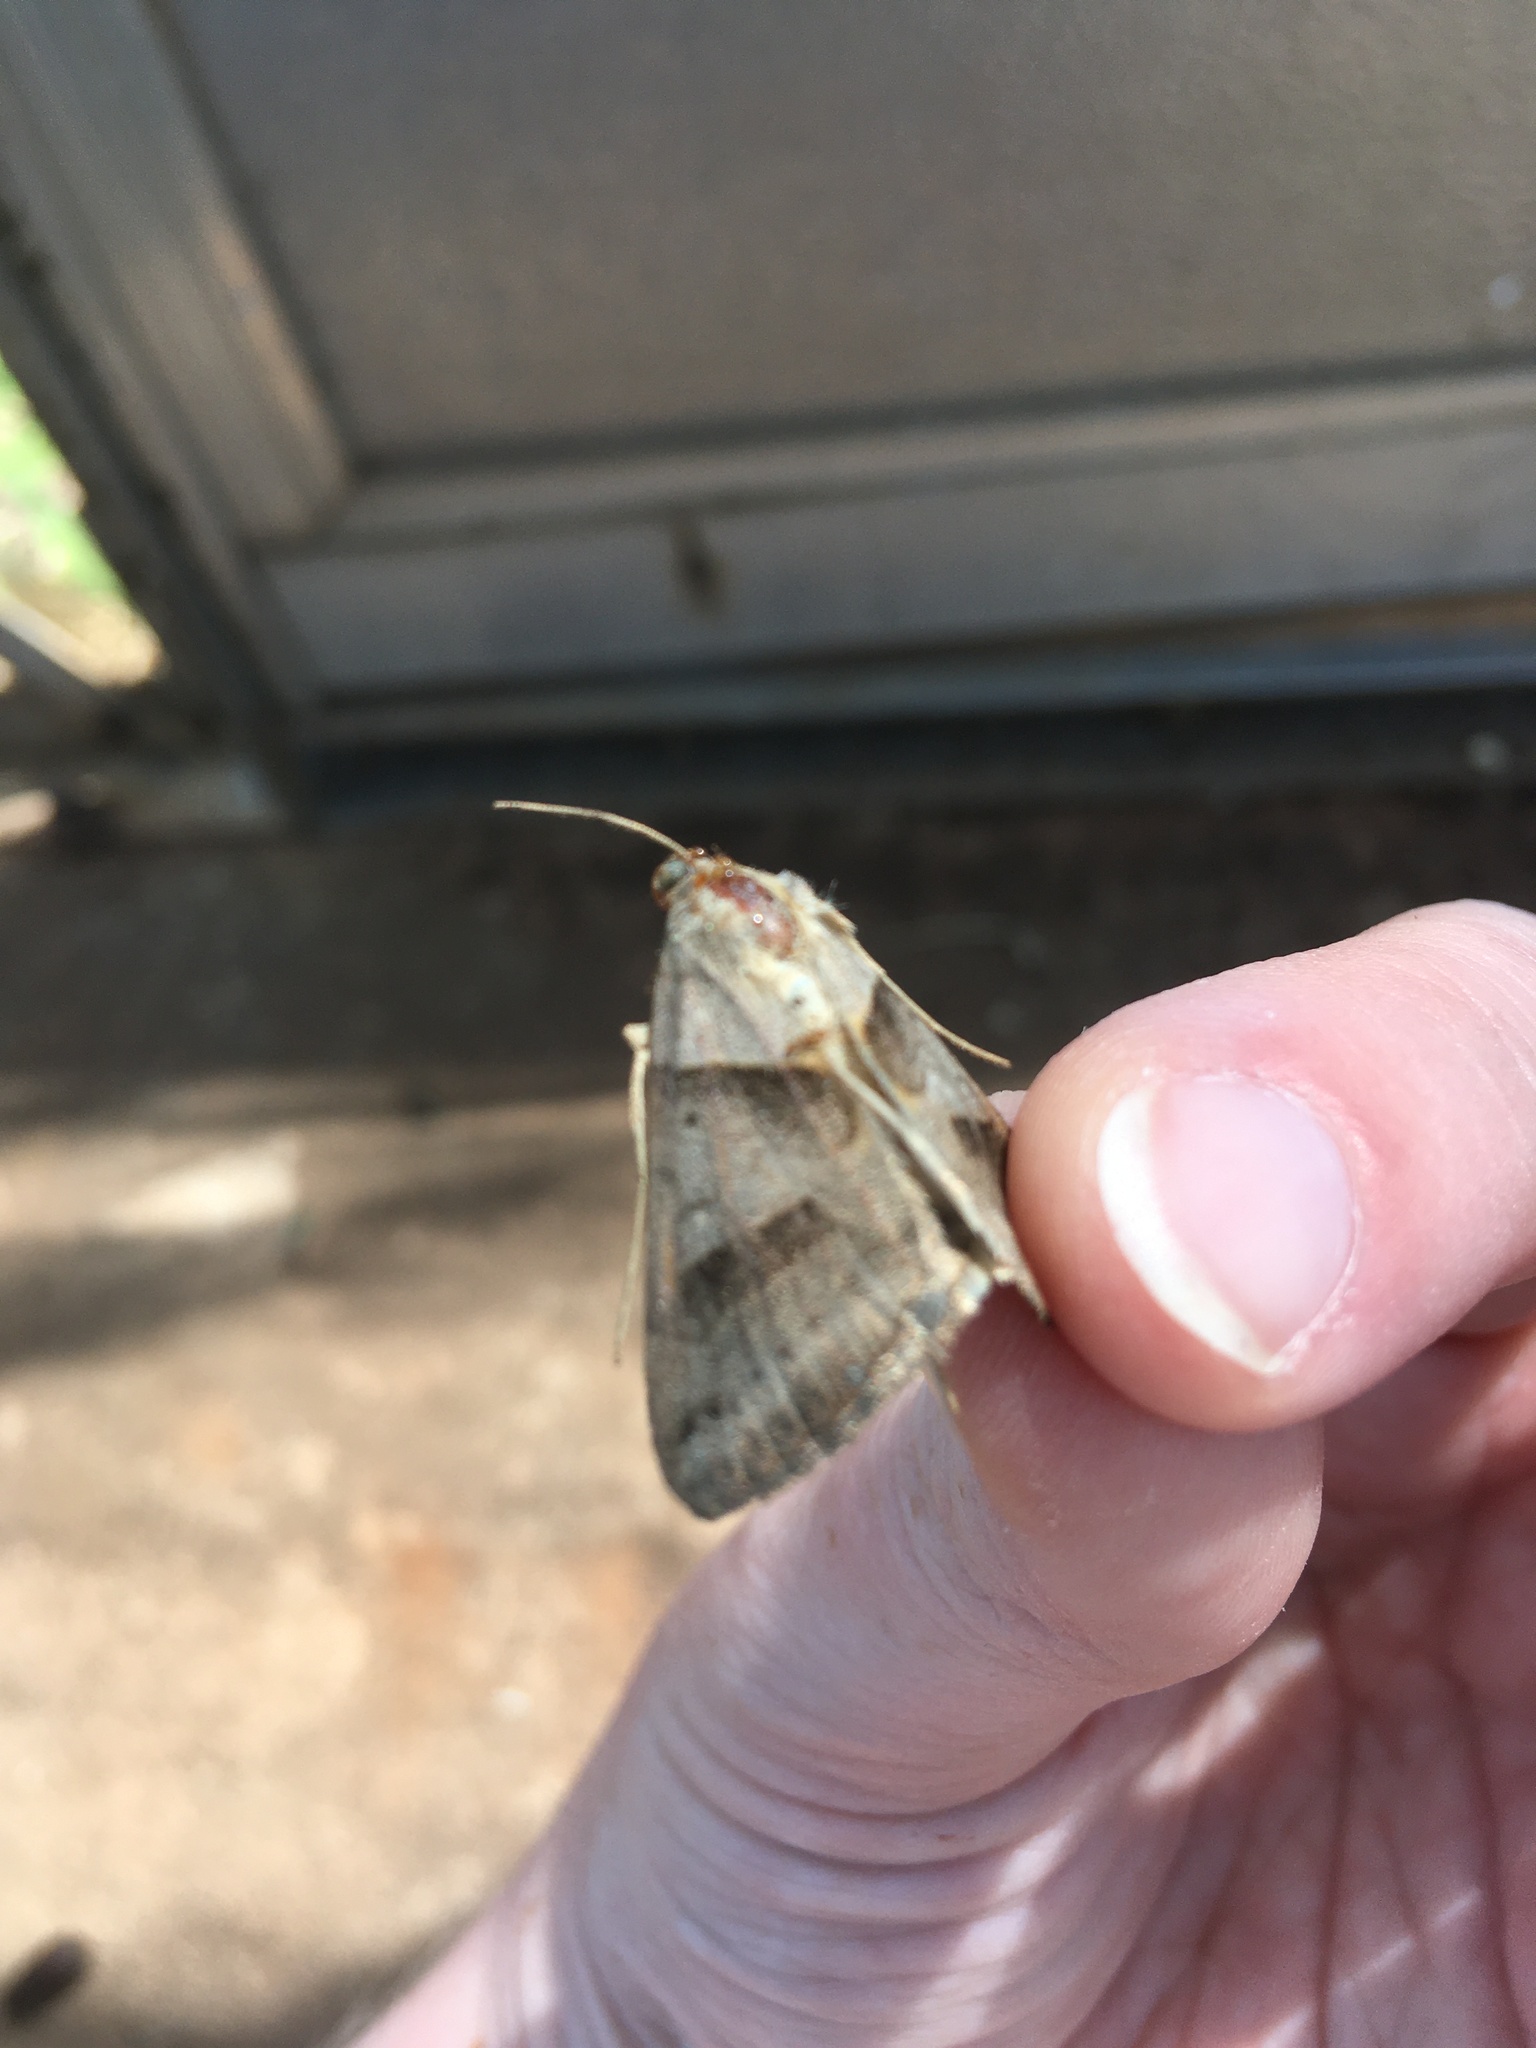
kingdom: Animalia
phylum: Arthropoda
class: Insecta
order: Lepidoptera
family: Erebidae
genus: Caenurgina
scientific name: Caenurgina erechtea
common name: Forage looper moth
